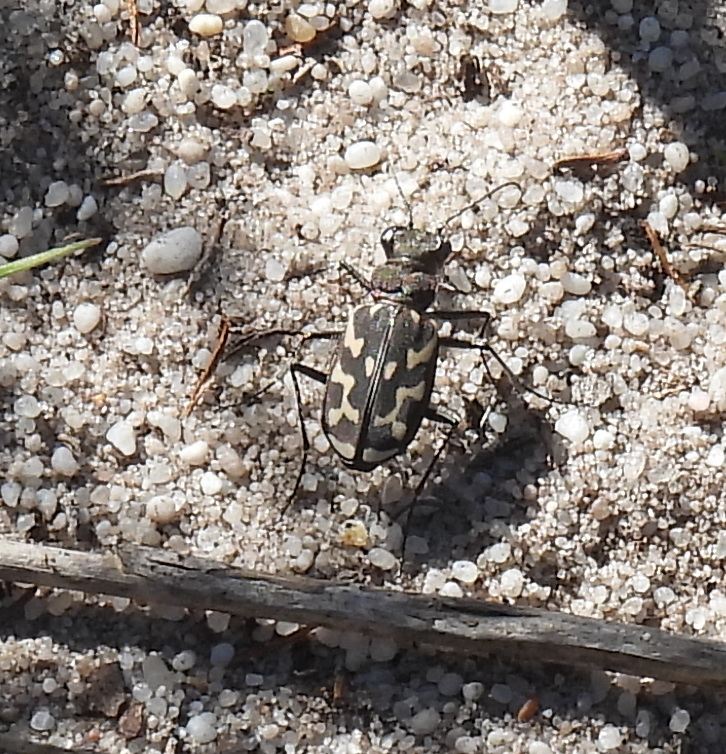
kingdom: Animalia
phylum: Arthropoda
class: Insecta
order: Coleoptera
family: Carabidae
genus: Cicindela
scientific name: Cicindela lurida
